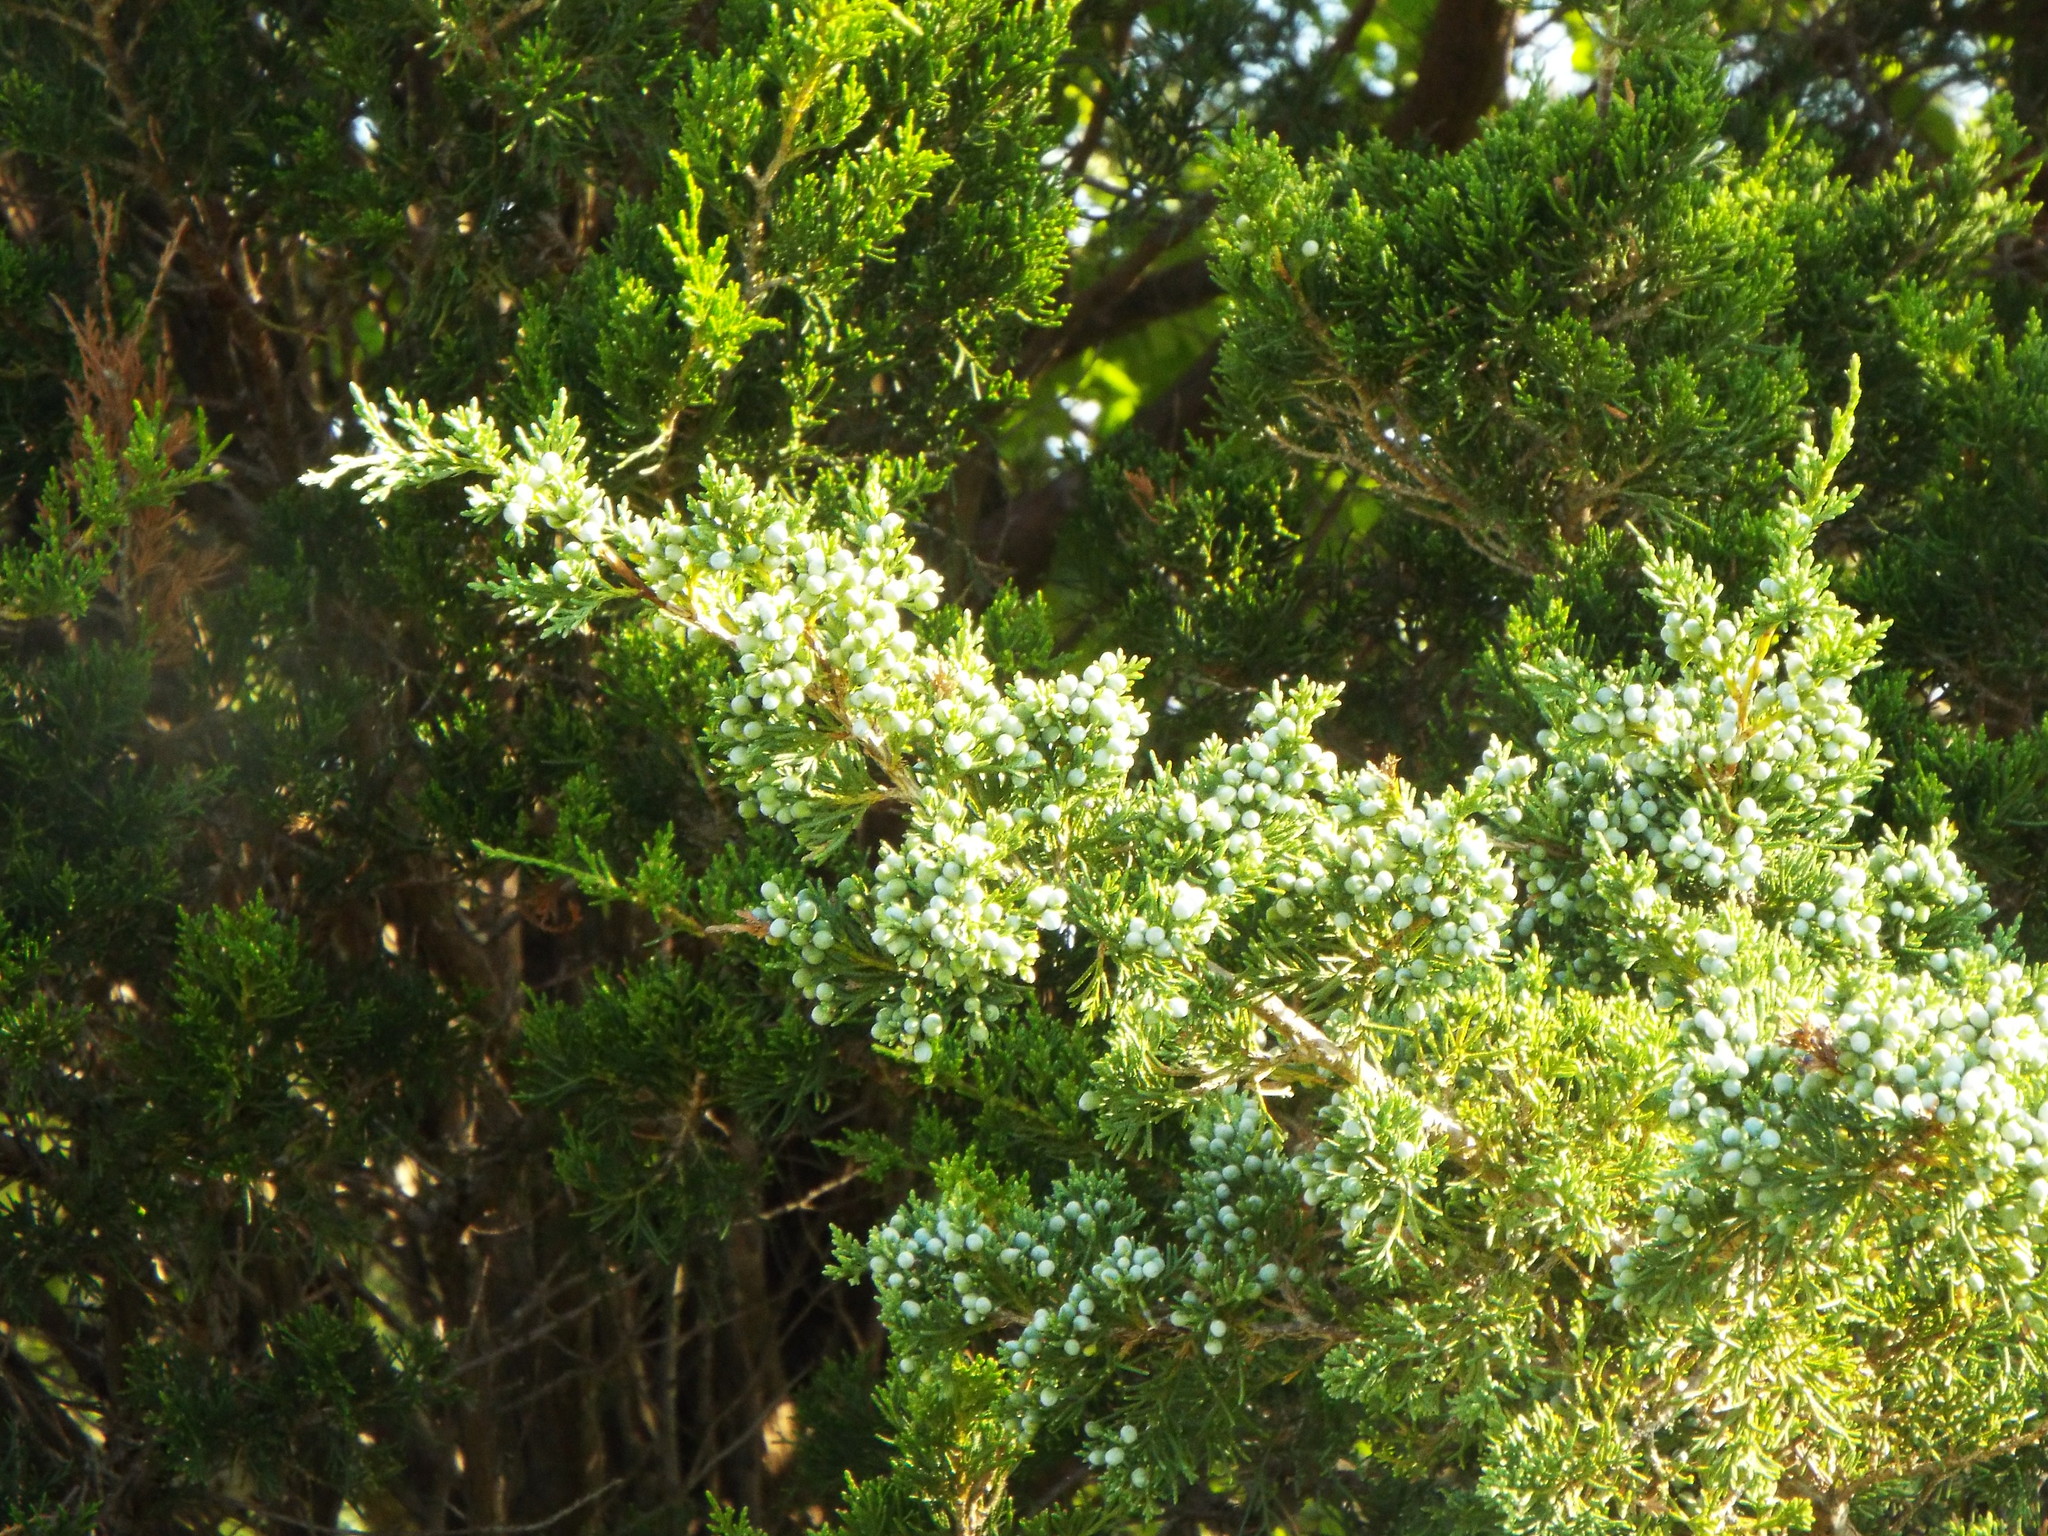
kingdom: Plantae
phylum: Tracheophyta
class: Pinopsida
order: Pinales
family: Cupressaceae
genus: Juniperus
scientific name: Juniperus virginiana
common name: Red juniper
